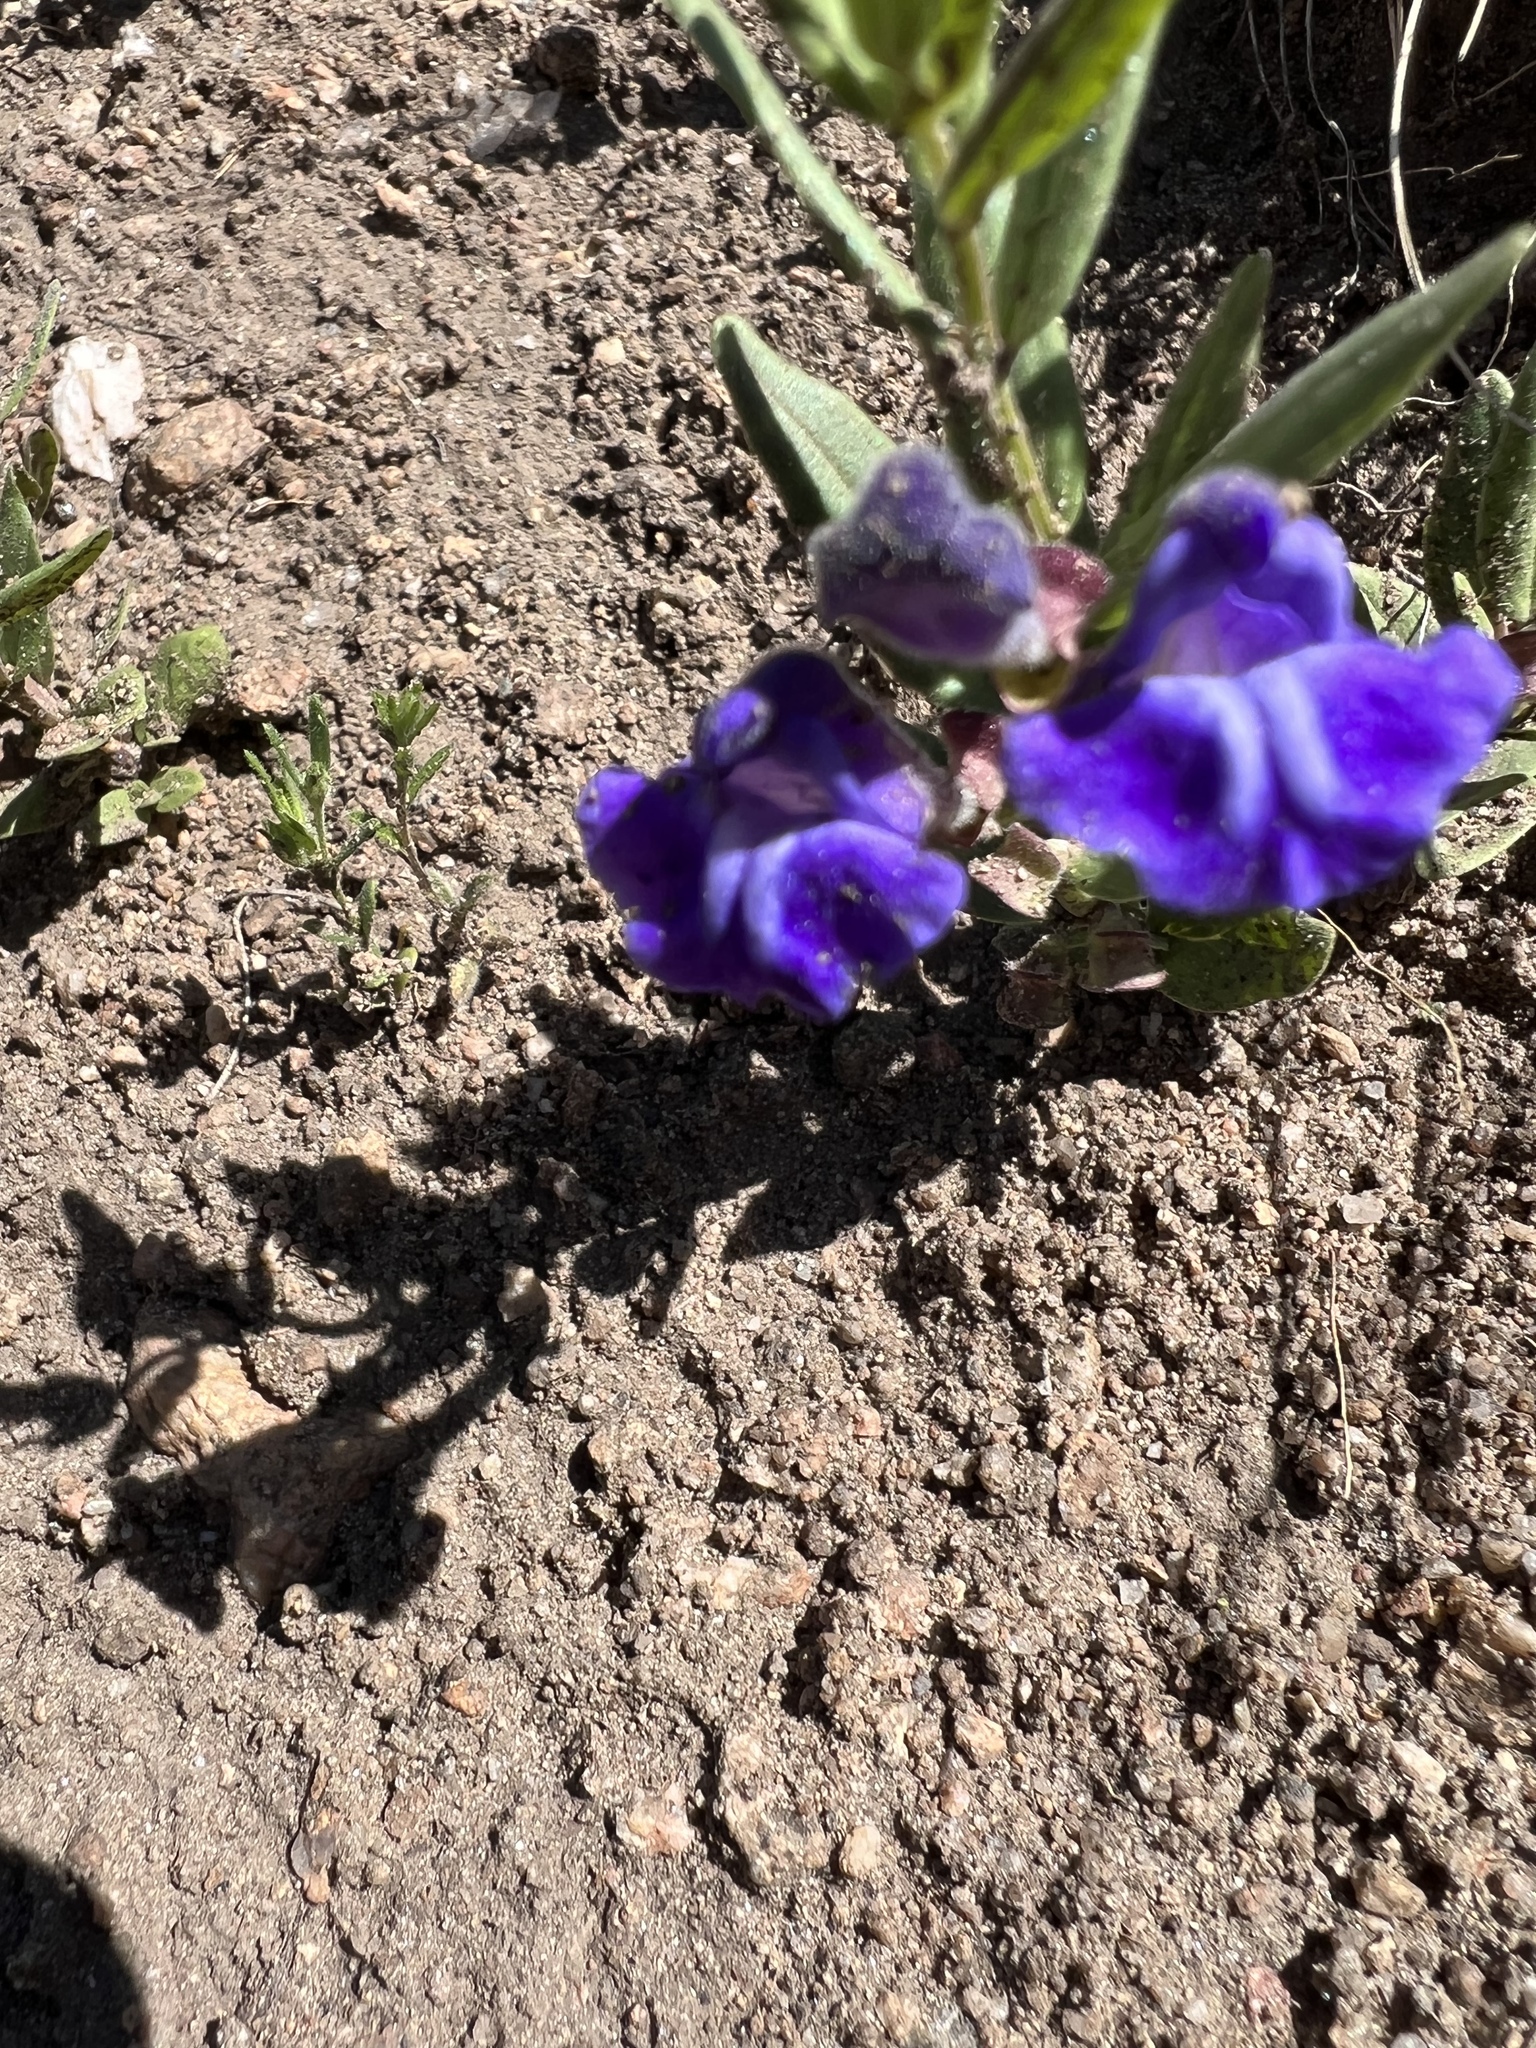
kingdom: Plantae
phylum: Tracheophyta
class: Magnoliopsida
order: Lamiales
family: Lamiaceae
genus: Scutellaria
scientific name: Scutellaria brittonii
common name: Britton's skullcap
